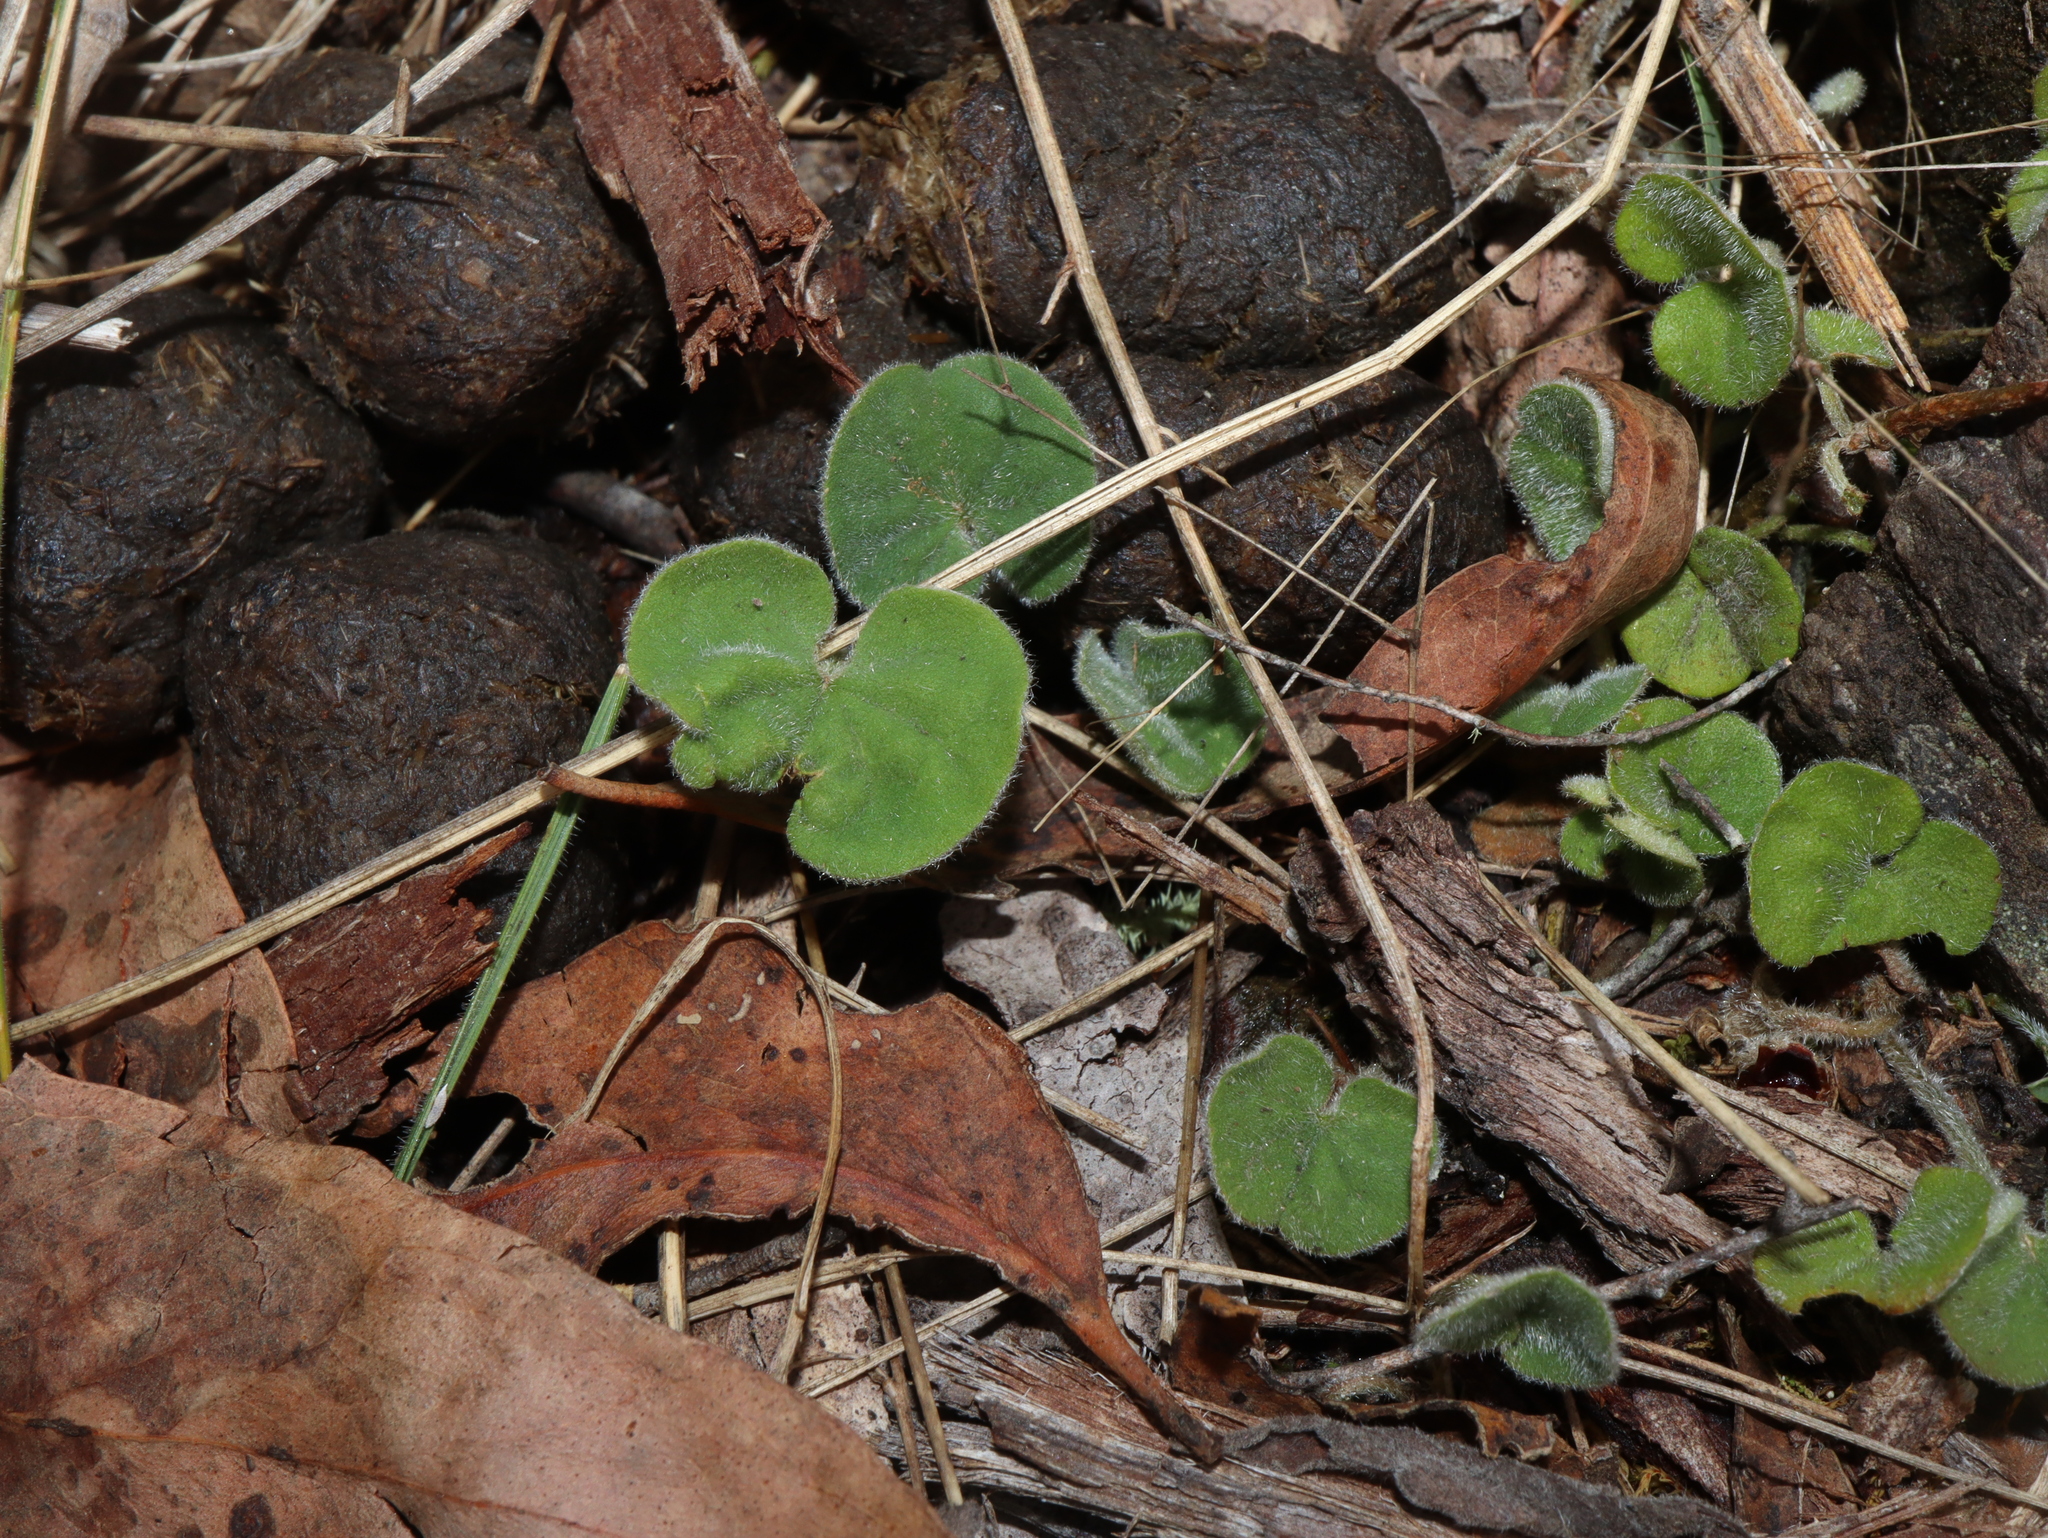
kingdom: Plantae
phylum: Tracheophyta
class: Magnoliopsida
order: Solanales
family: Convolvulaceae
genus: Dichondra
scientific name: Dichondra repens
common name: Kidneyweed
